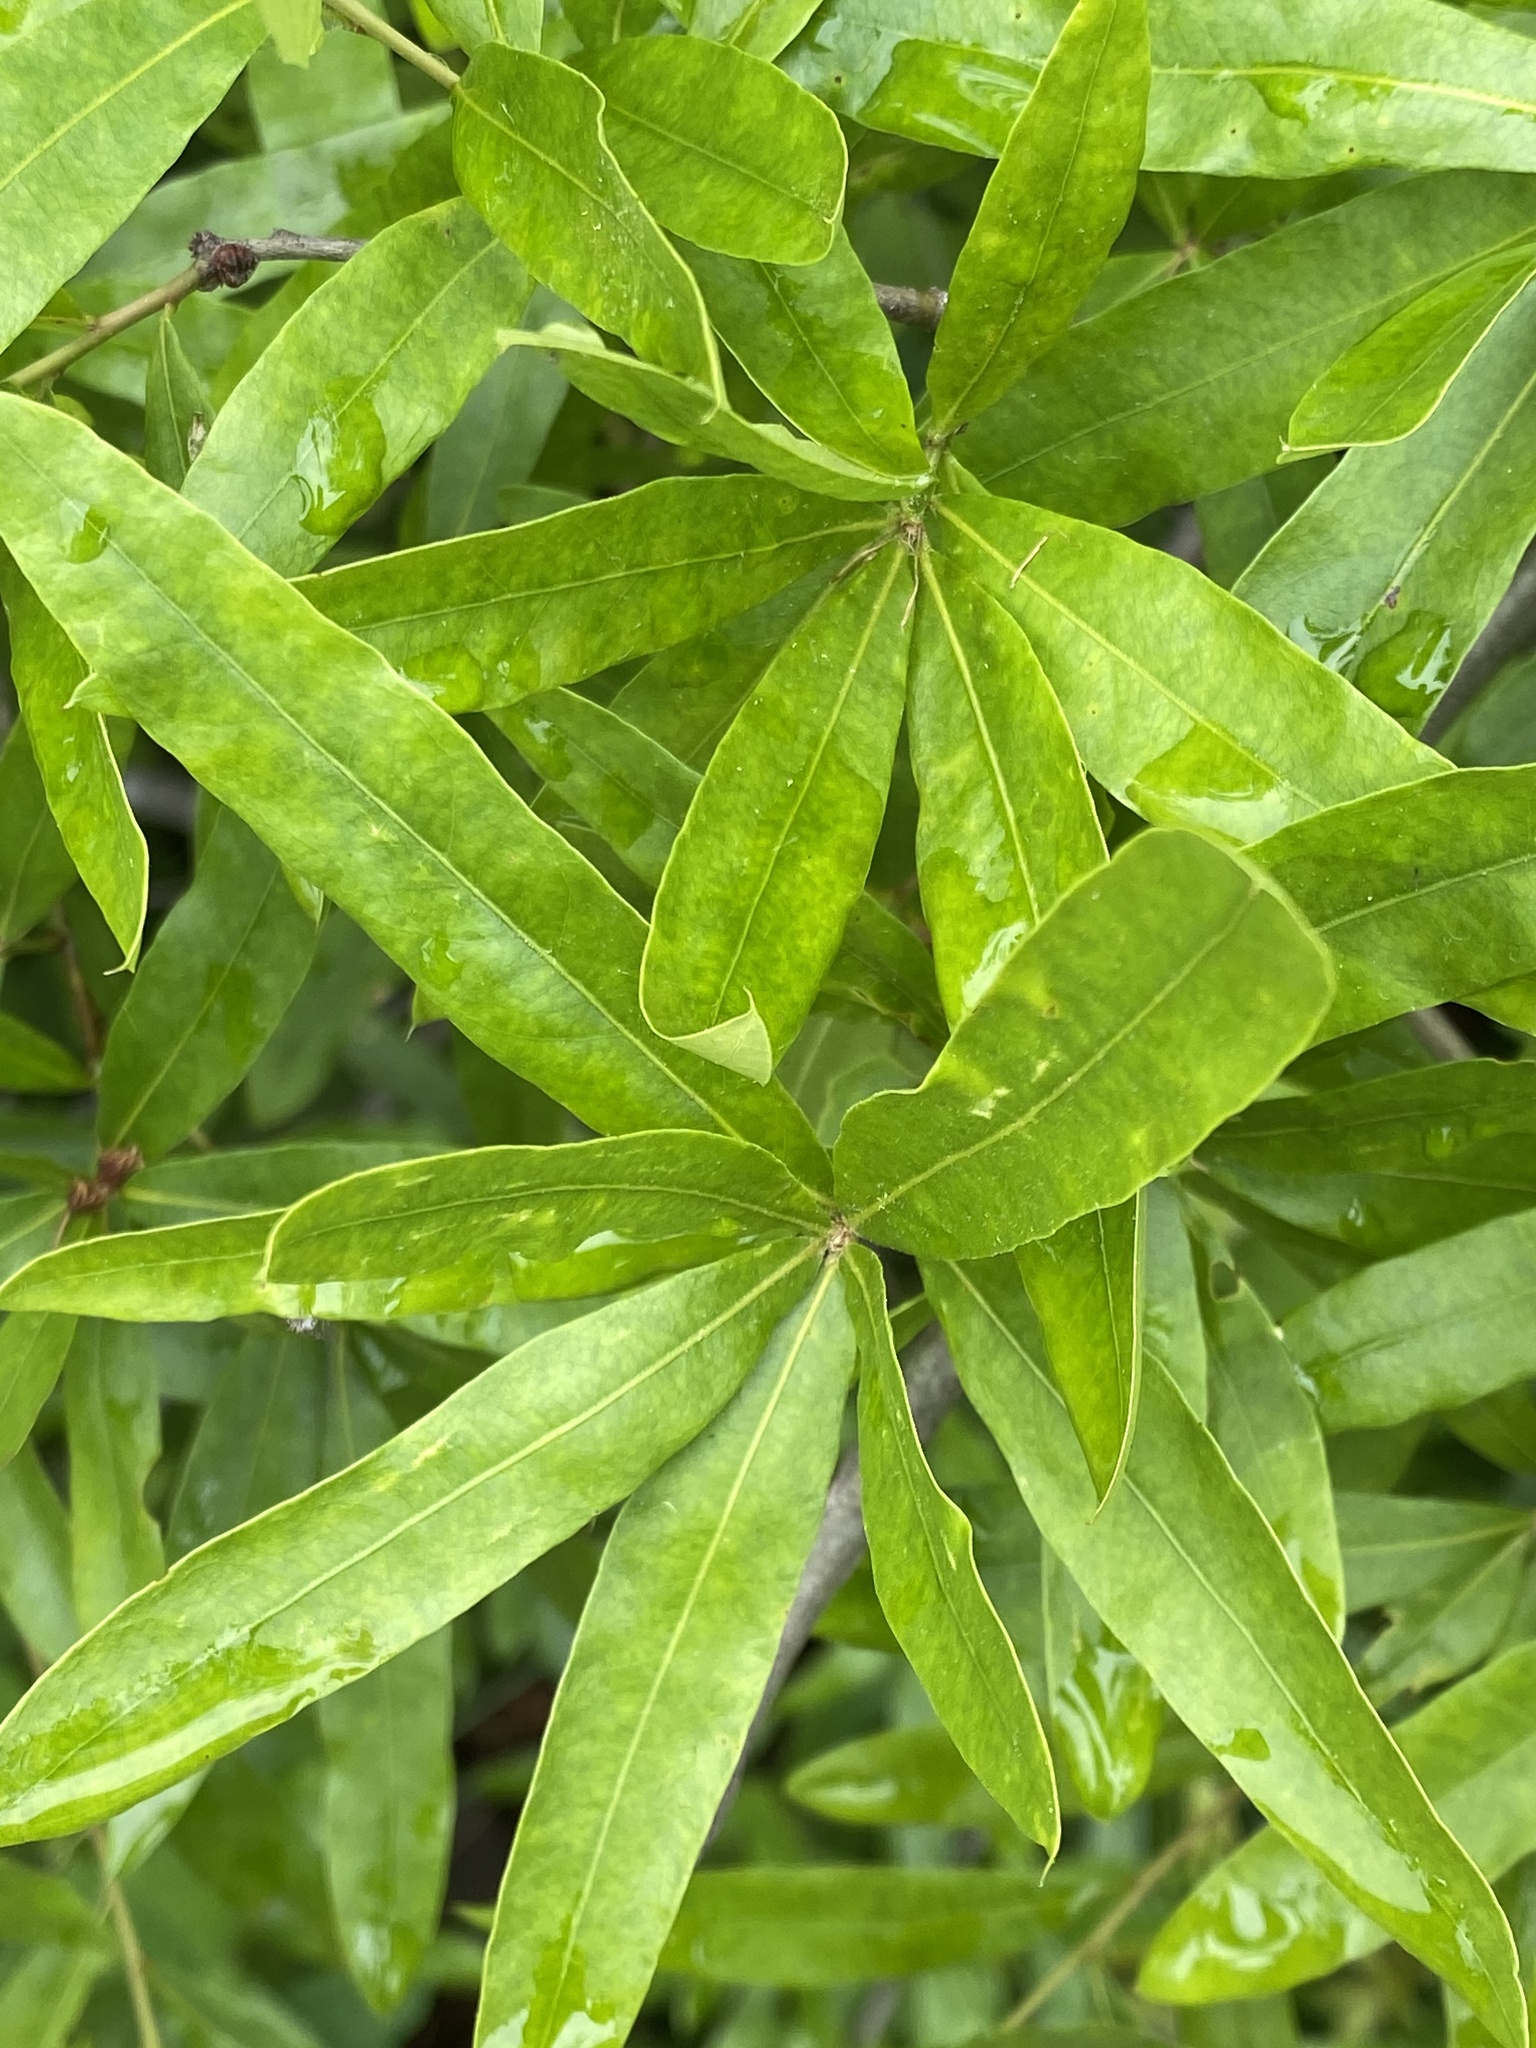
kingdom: Plantae
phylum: Tracheophyta
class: Magnoliopsida
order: Fagales
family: Fagaceae
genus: Quercus
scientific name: Quercus phellos
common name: Willow oak
